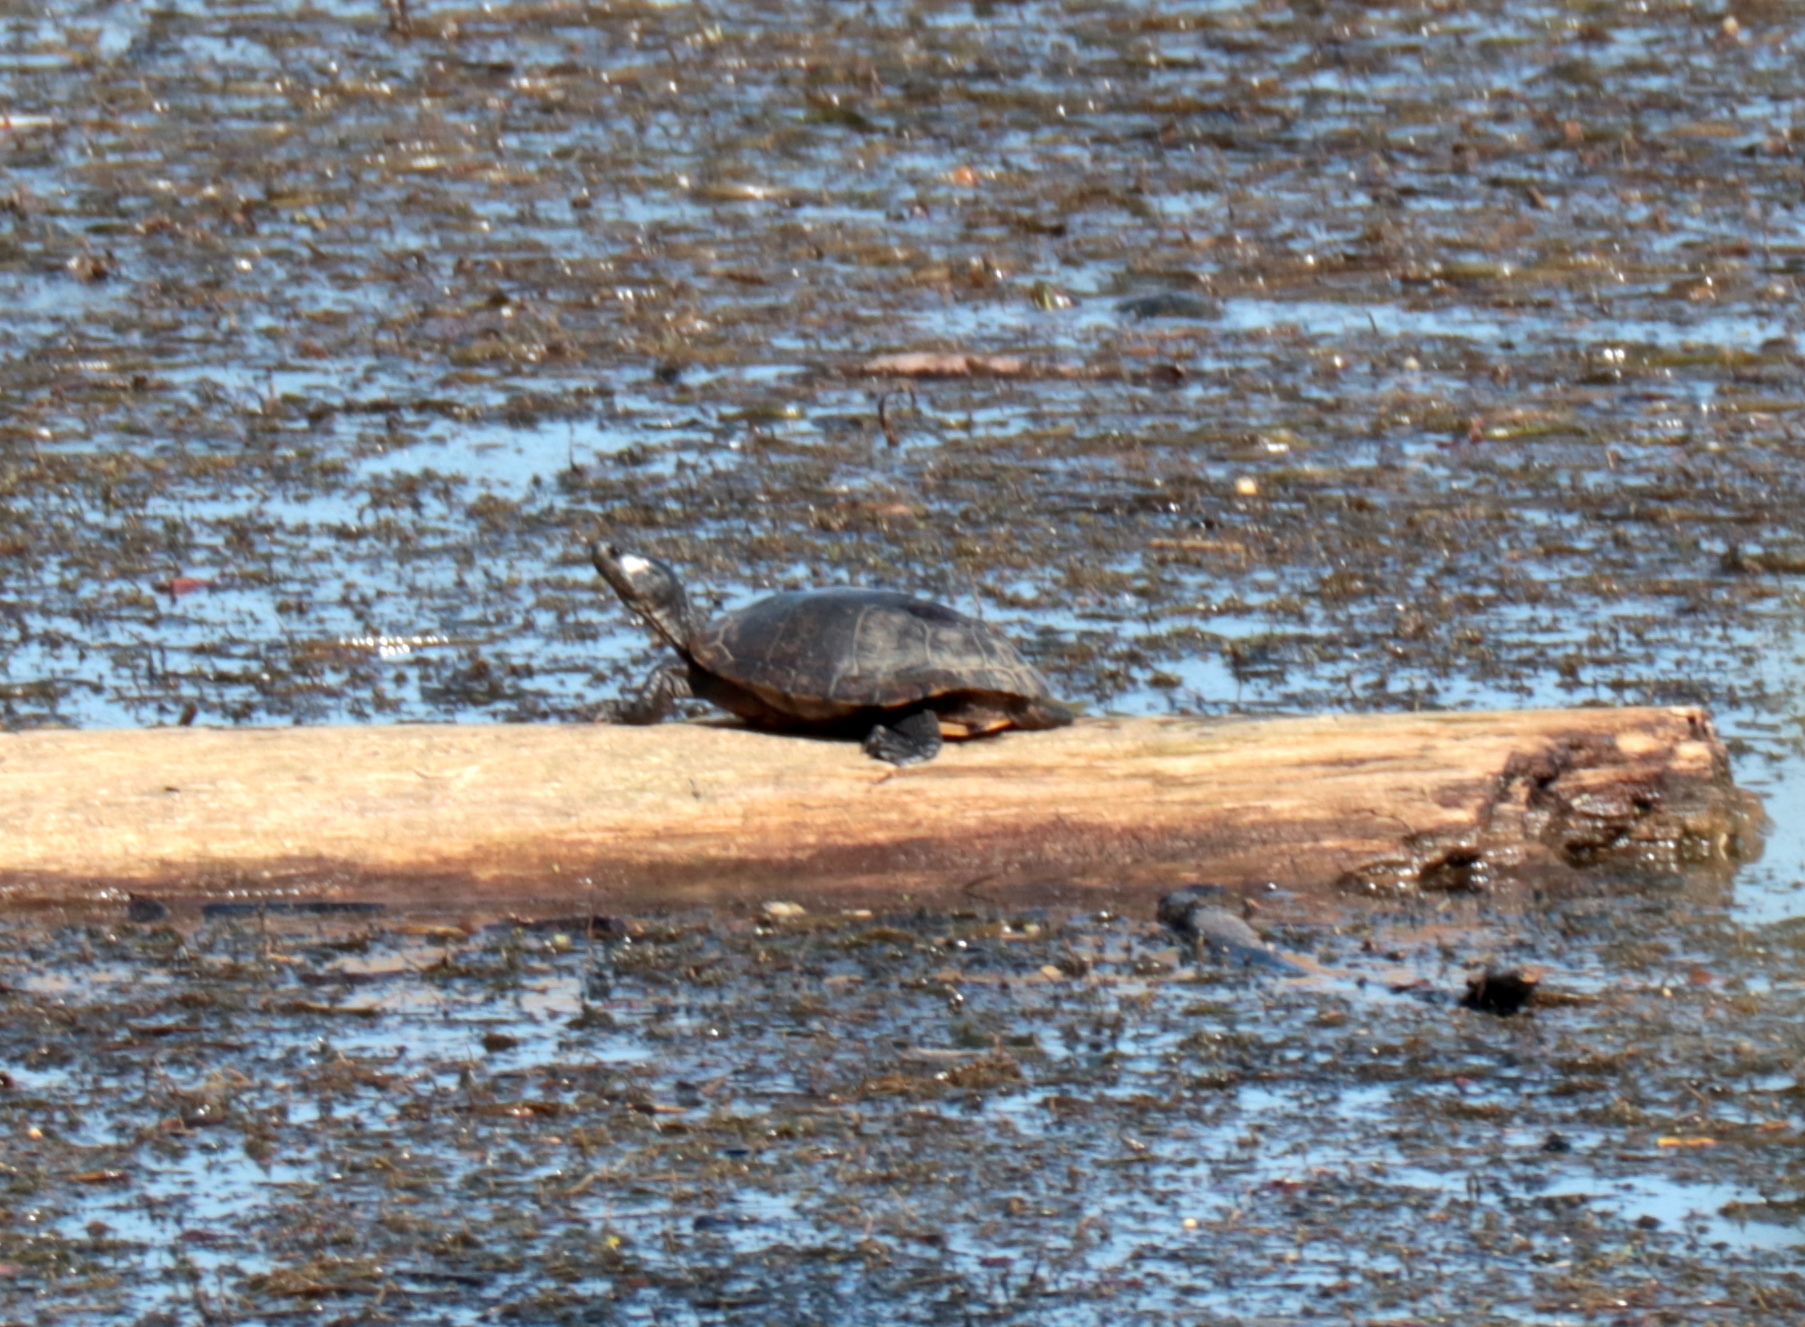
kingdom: Animalia
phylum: Chordata
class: Testudines
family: Emydidae
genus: Trachemys
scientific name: Trachemys scripta
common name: Slider
